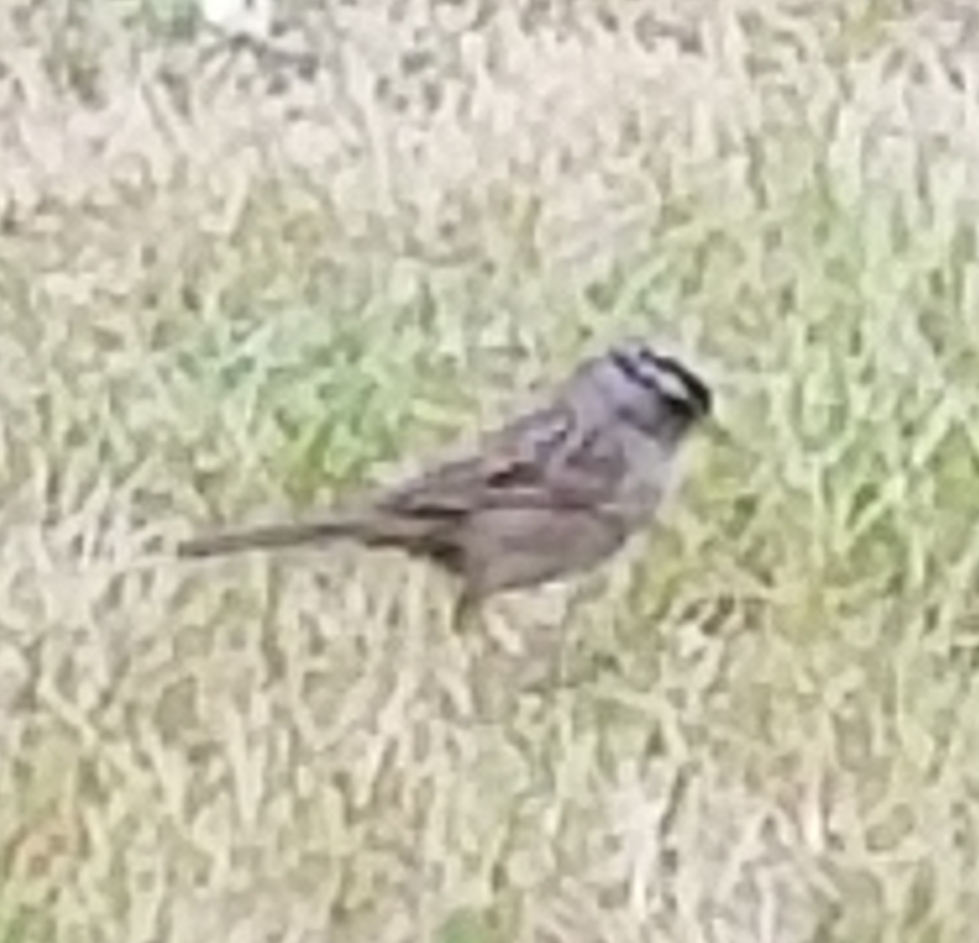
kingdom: Animalia
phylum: Chordata
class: Aves
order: Passeriformes
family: Passerellidae
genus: Zonotrichia
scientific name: Zonotrichia leucophrys
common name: White-crowned sparrow
